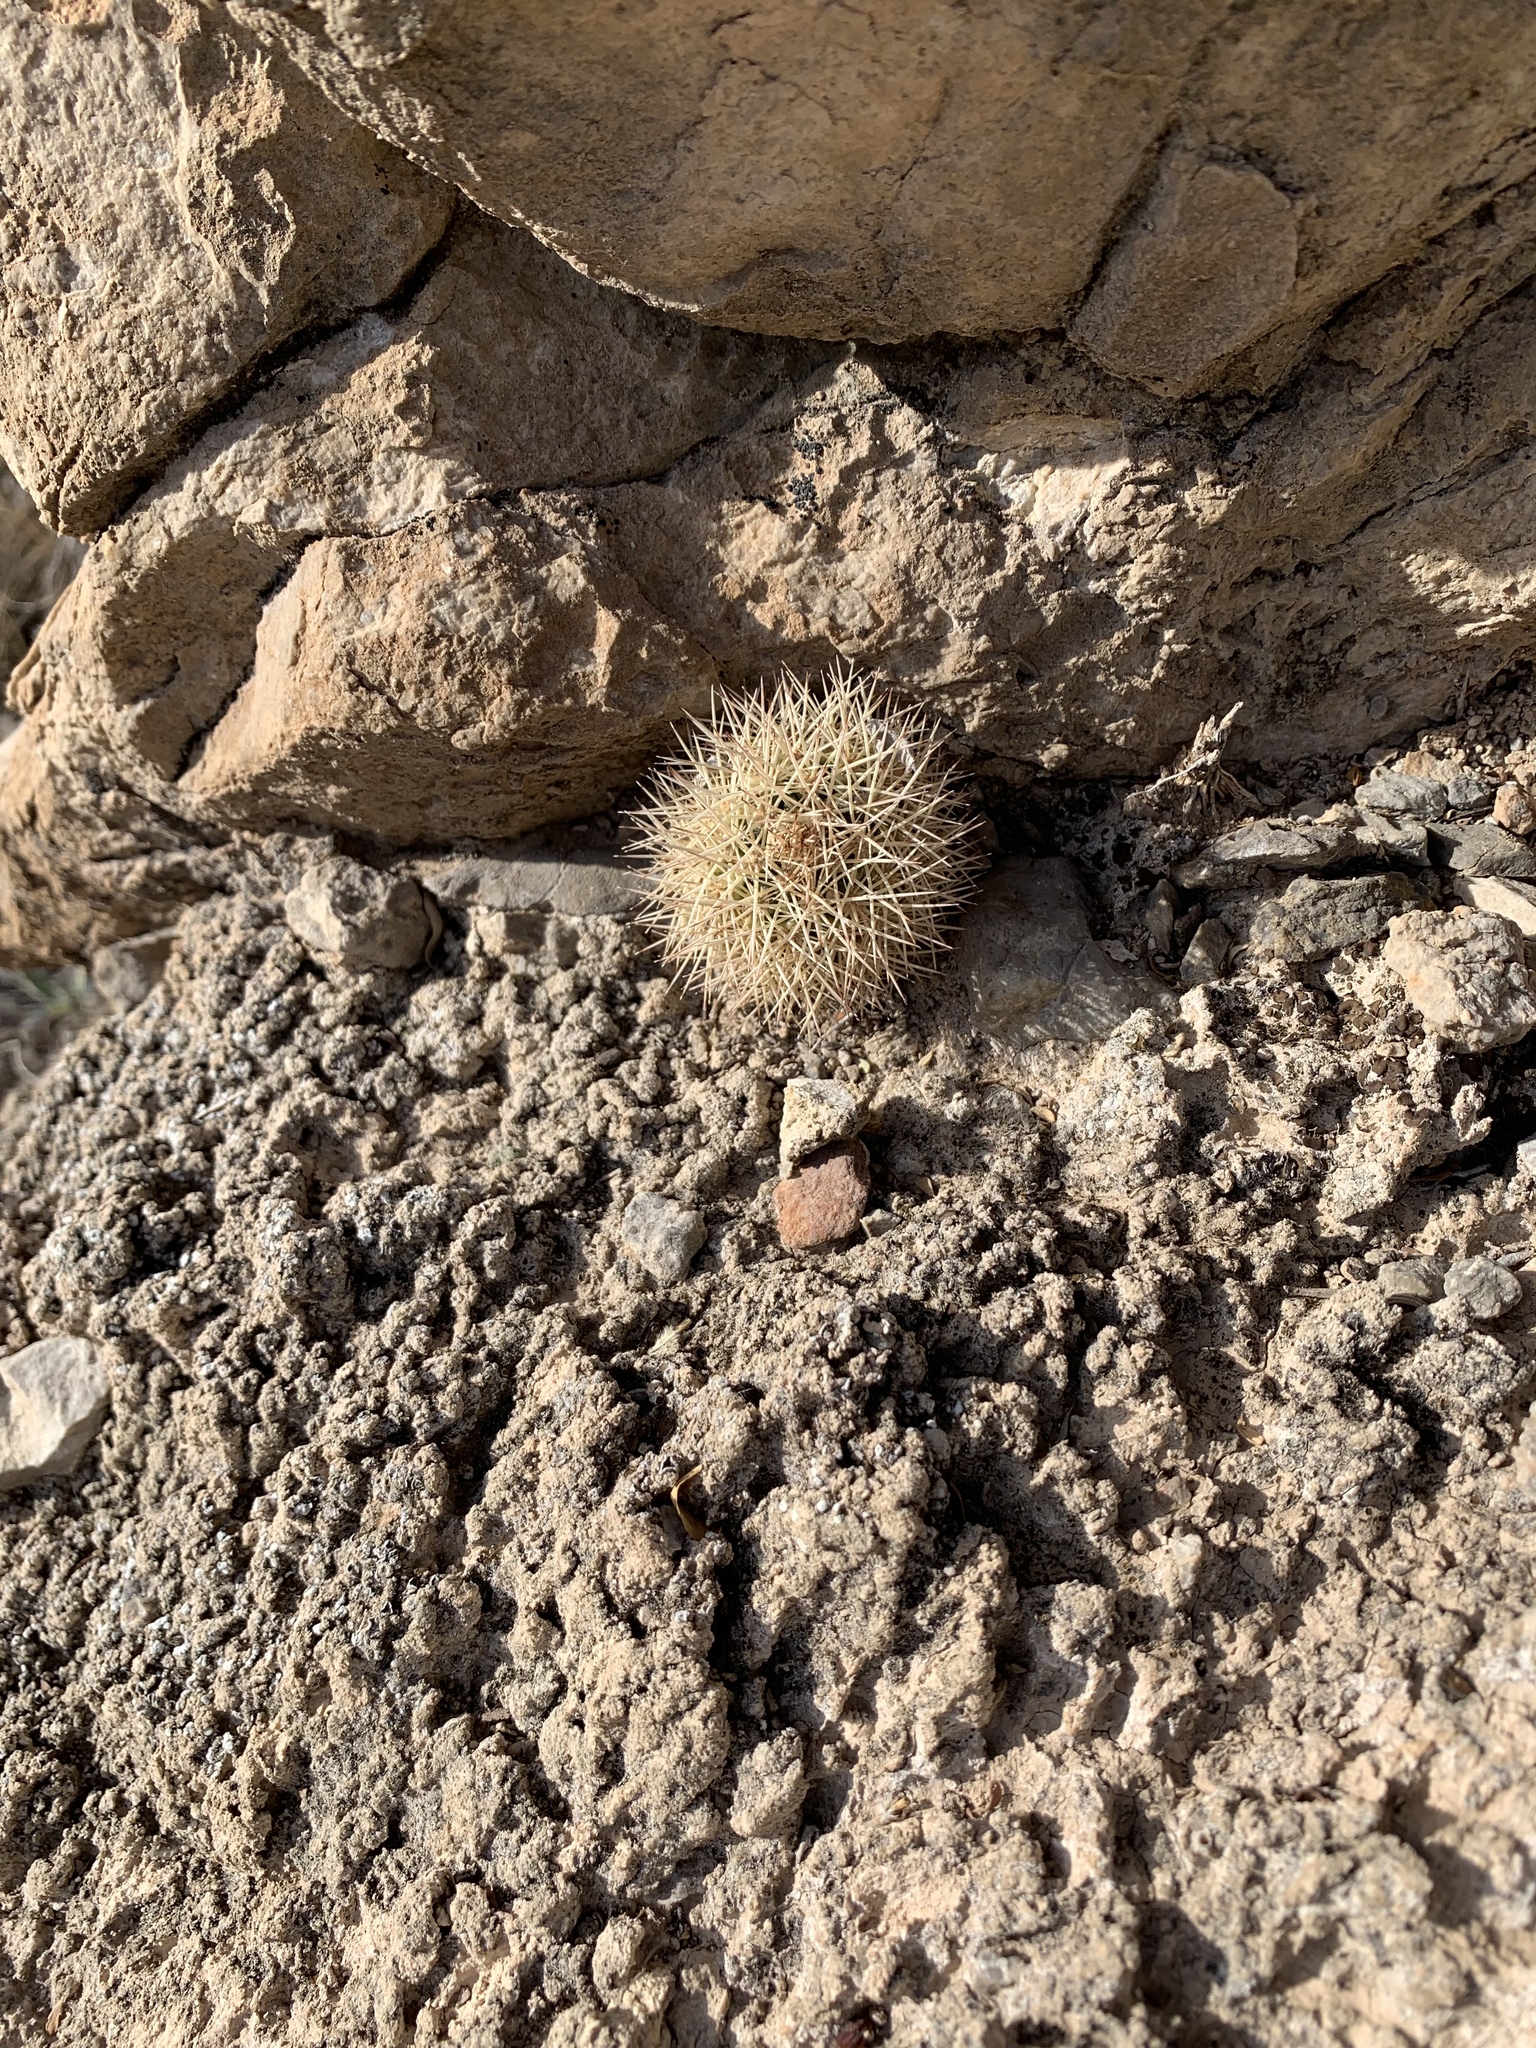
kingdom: Plantae
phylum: Tracheophyta
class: Magnoliopsida
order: Caryophyllales
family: Cactaceae
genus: Echinocereus
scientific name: Echinocereus dasyacanthus
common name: Spiny hedgehog cactus
